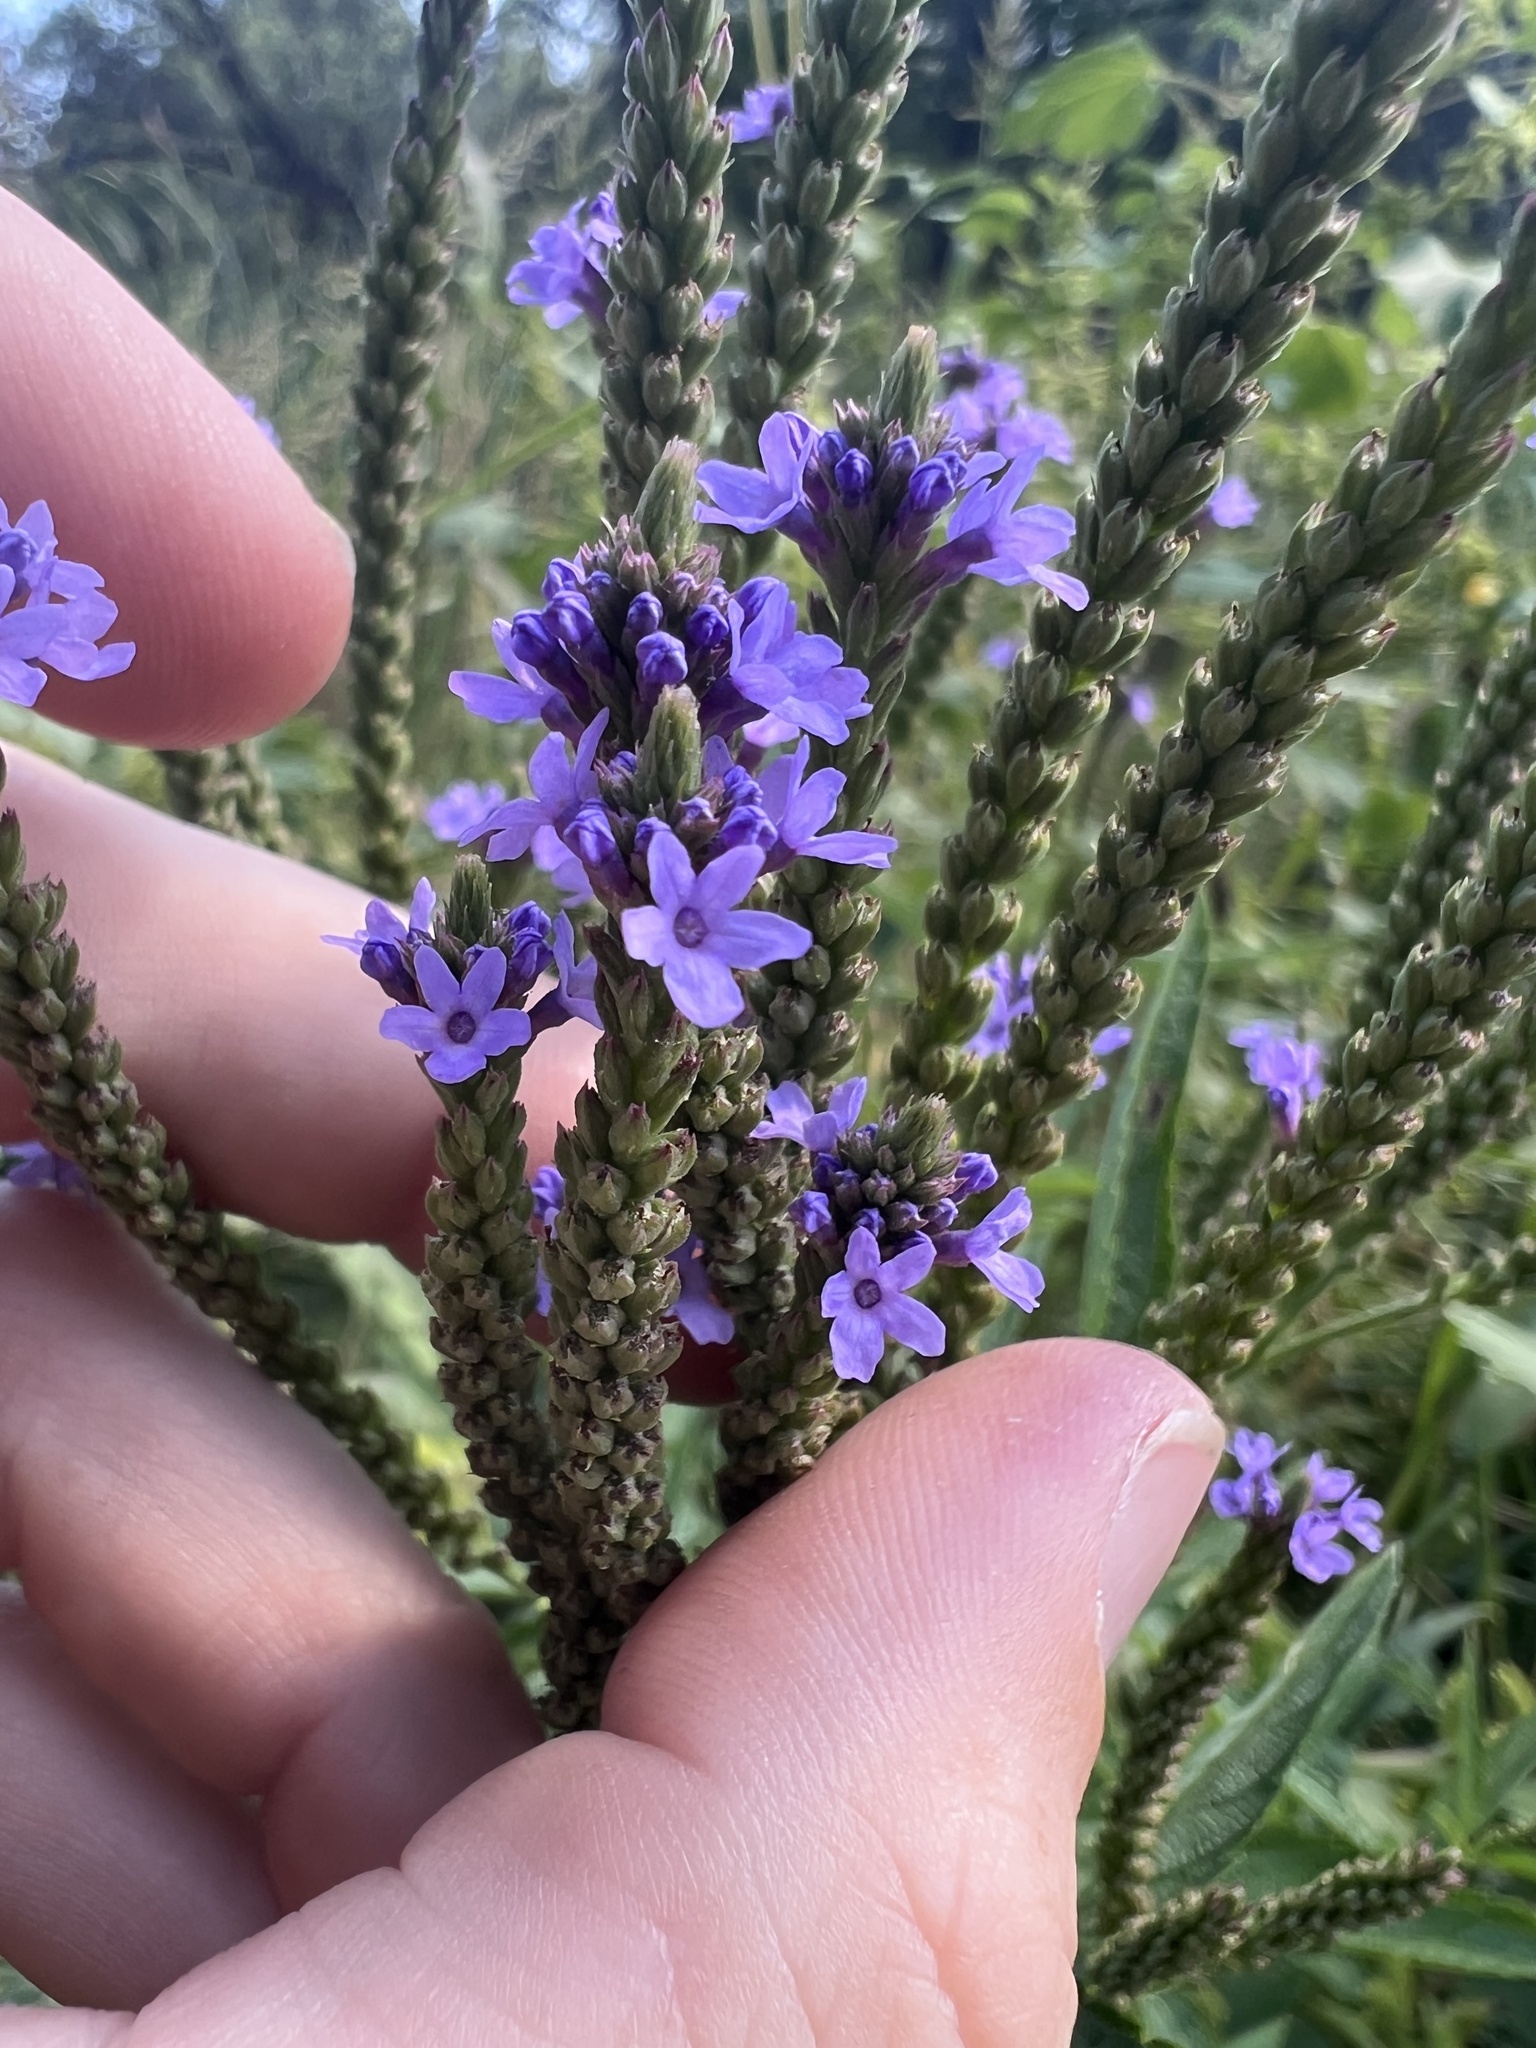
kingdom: Plantae
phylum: Tracheophyta
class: Magnoliopsida
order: Lamiales
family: Verbenaceae
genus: Verbena
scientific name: Verbena hastata
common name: American blue vervain
